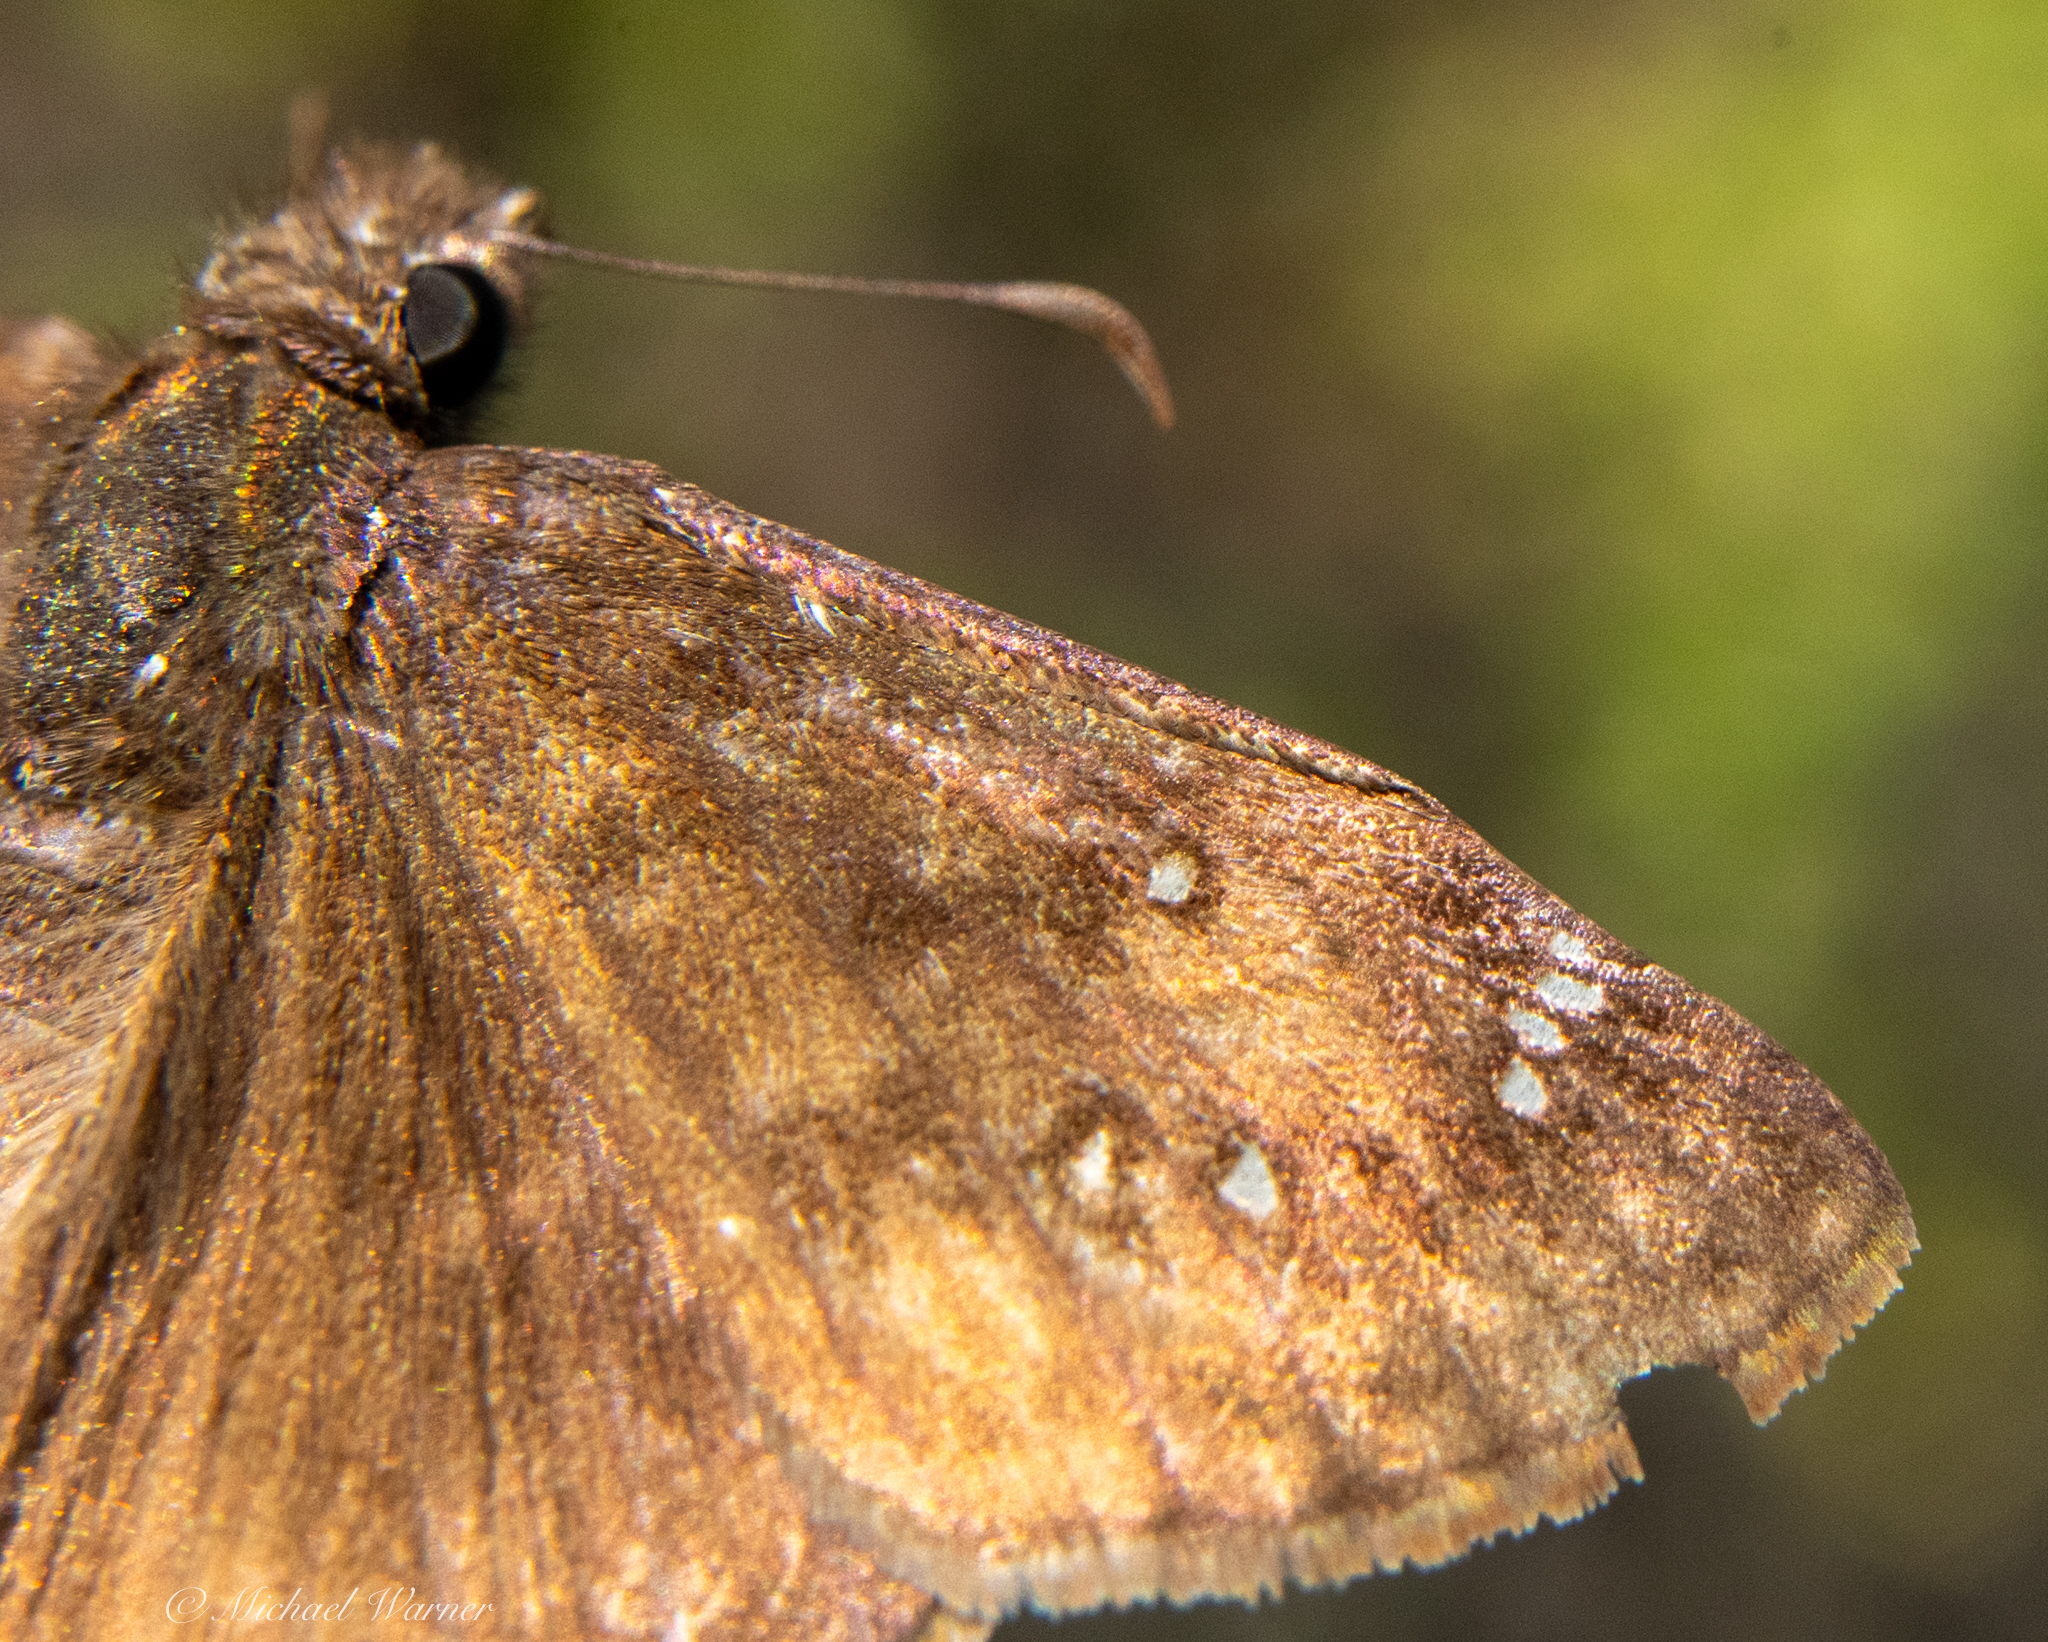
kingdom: Animalia
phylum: Arthropoda
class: Insecta
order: Lepidoptera
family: Hesperiidae
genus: Erynnis
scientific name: Erynnis tristis
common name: Mournful duskywing
